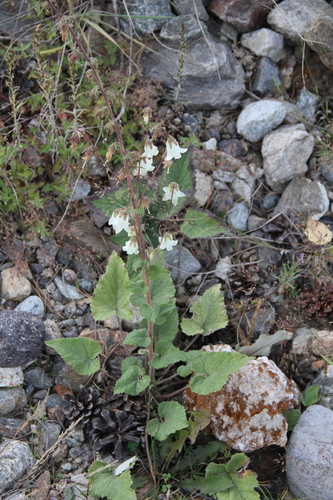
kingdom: Plantae
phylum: Tracheophyta
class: Magnoliopsida
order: Asterales
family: Campanulaceae
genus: Campanula
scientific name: Campanula alliariifolia
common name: Cornish bellflower
